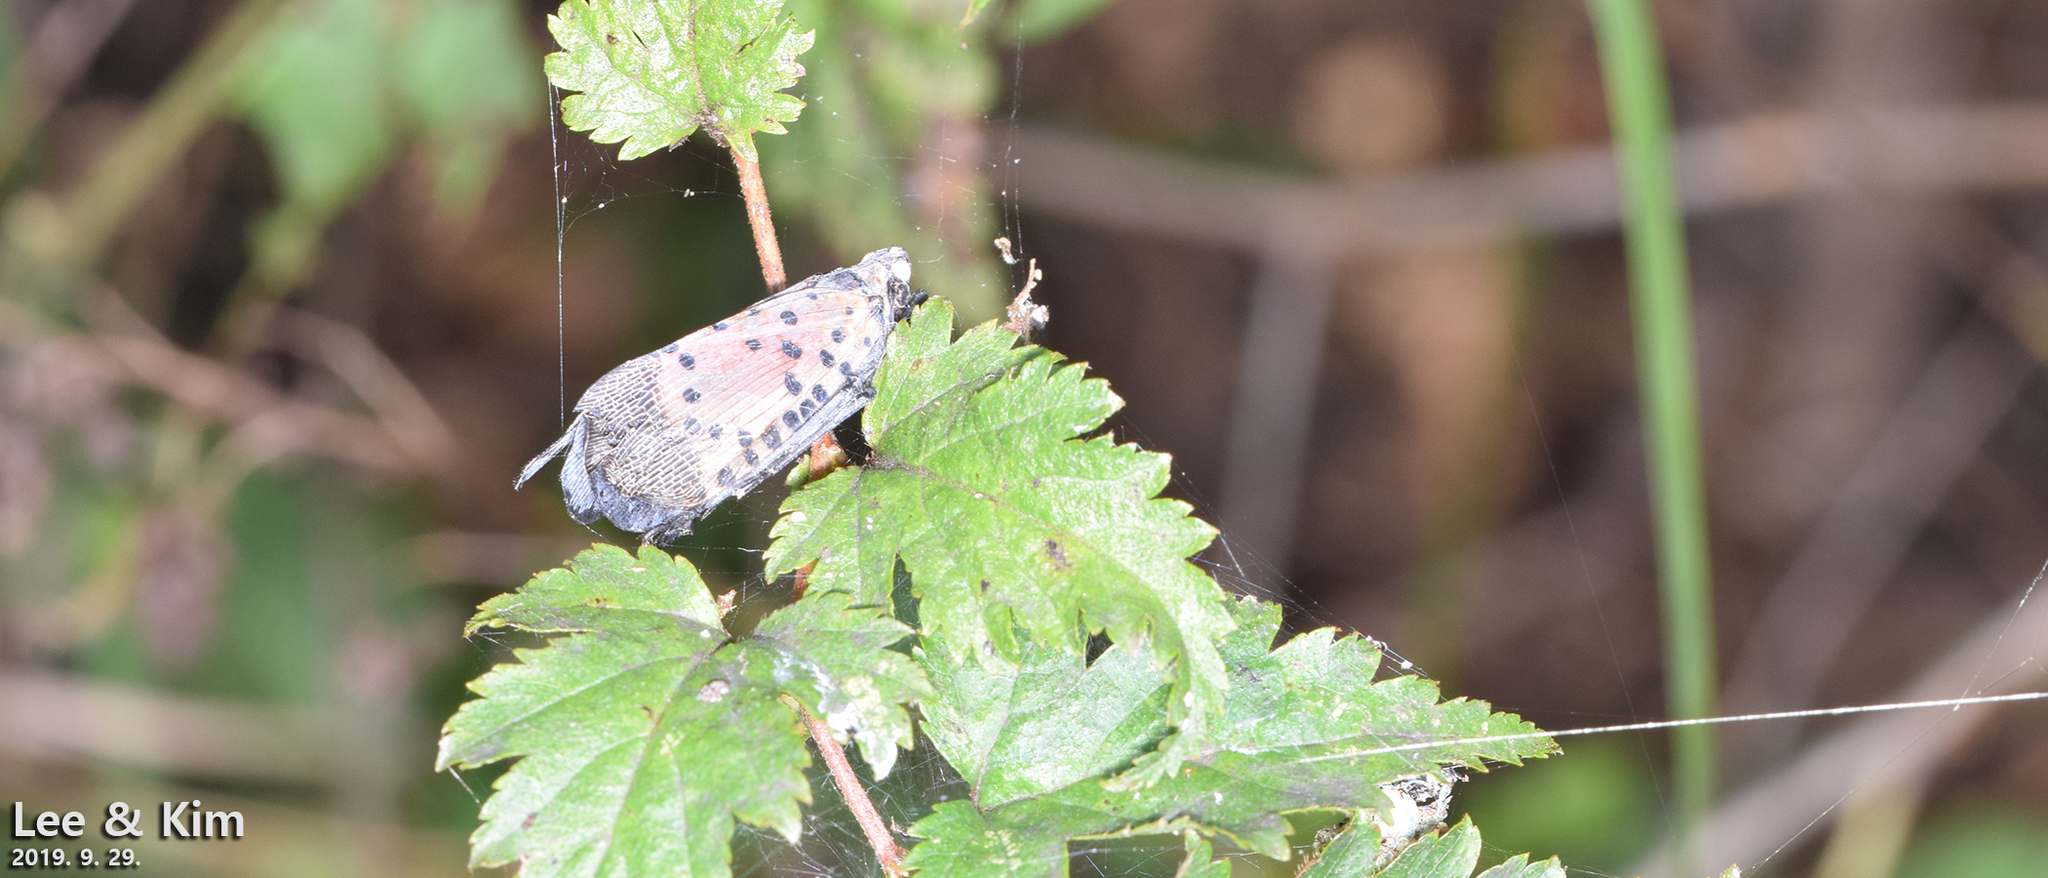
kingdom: Animalia
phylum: Arthropoda
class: Insecta
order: Hemiptera
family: Fulgoridae
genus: Lycorma
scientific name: Lycorma delicatula
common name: Spotted lanternfly
